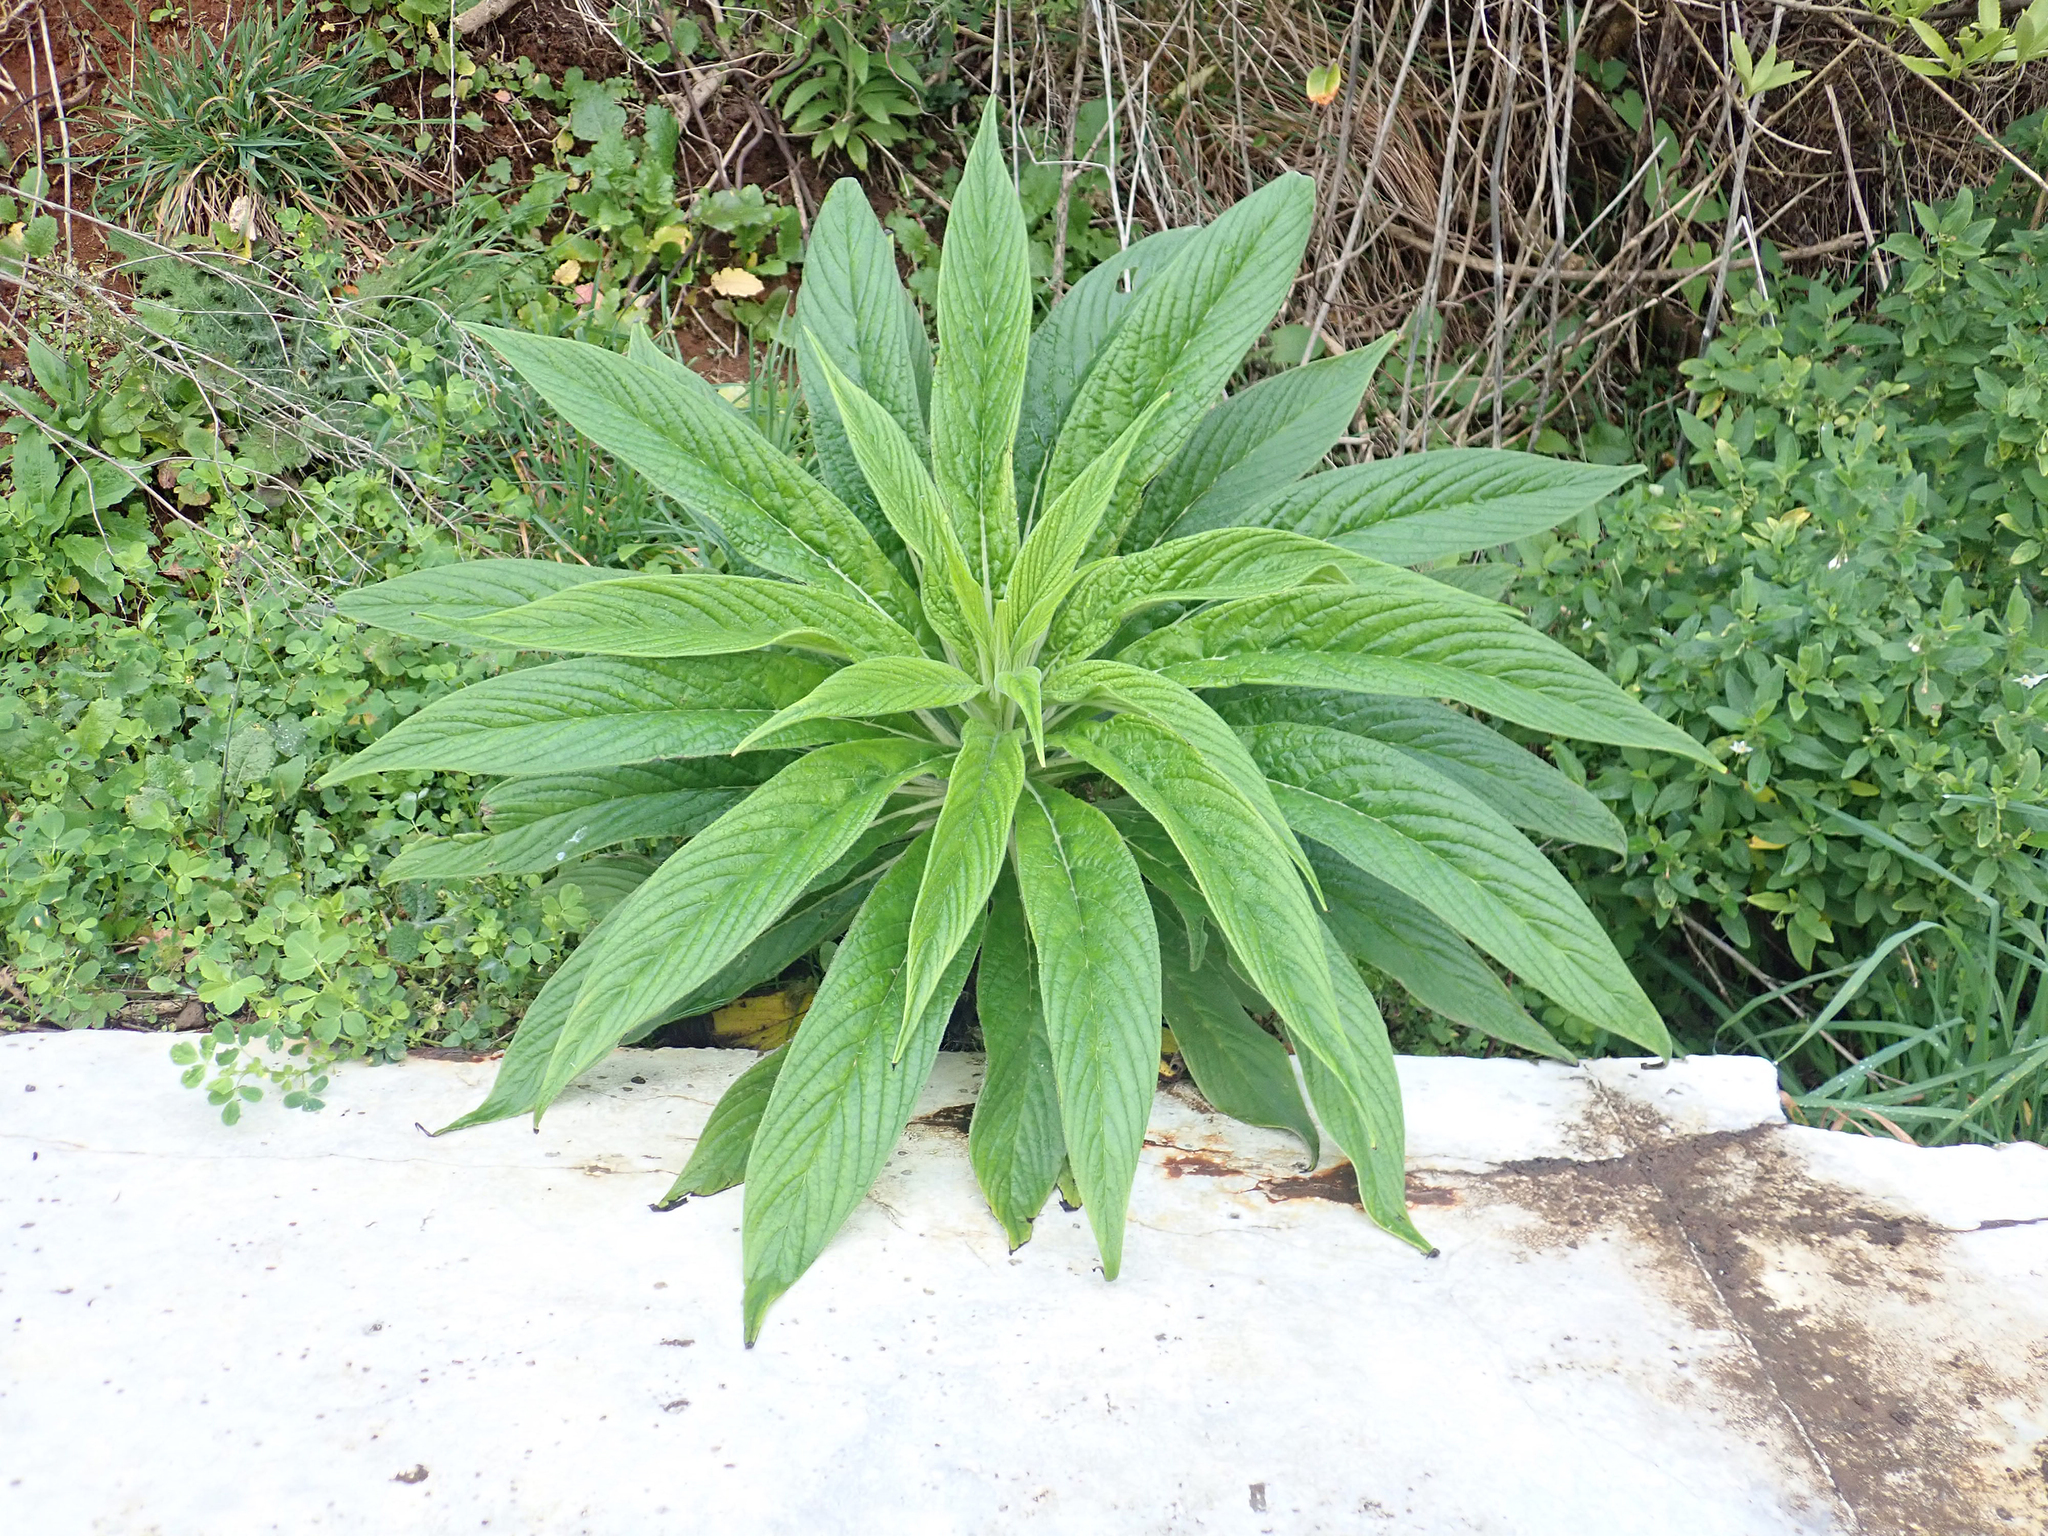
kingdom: Plantae
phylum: Tracheophyta
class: Magnoliopsida
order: Boraginales
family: Boraginaceae
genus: Echium
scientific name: Echium pininana
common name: Giant viper's-bugloss
